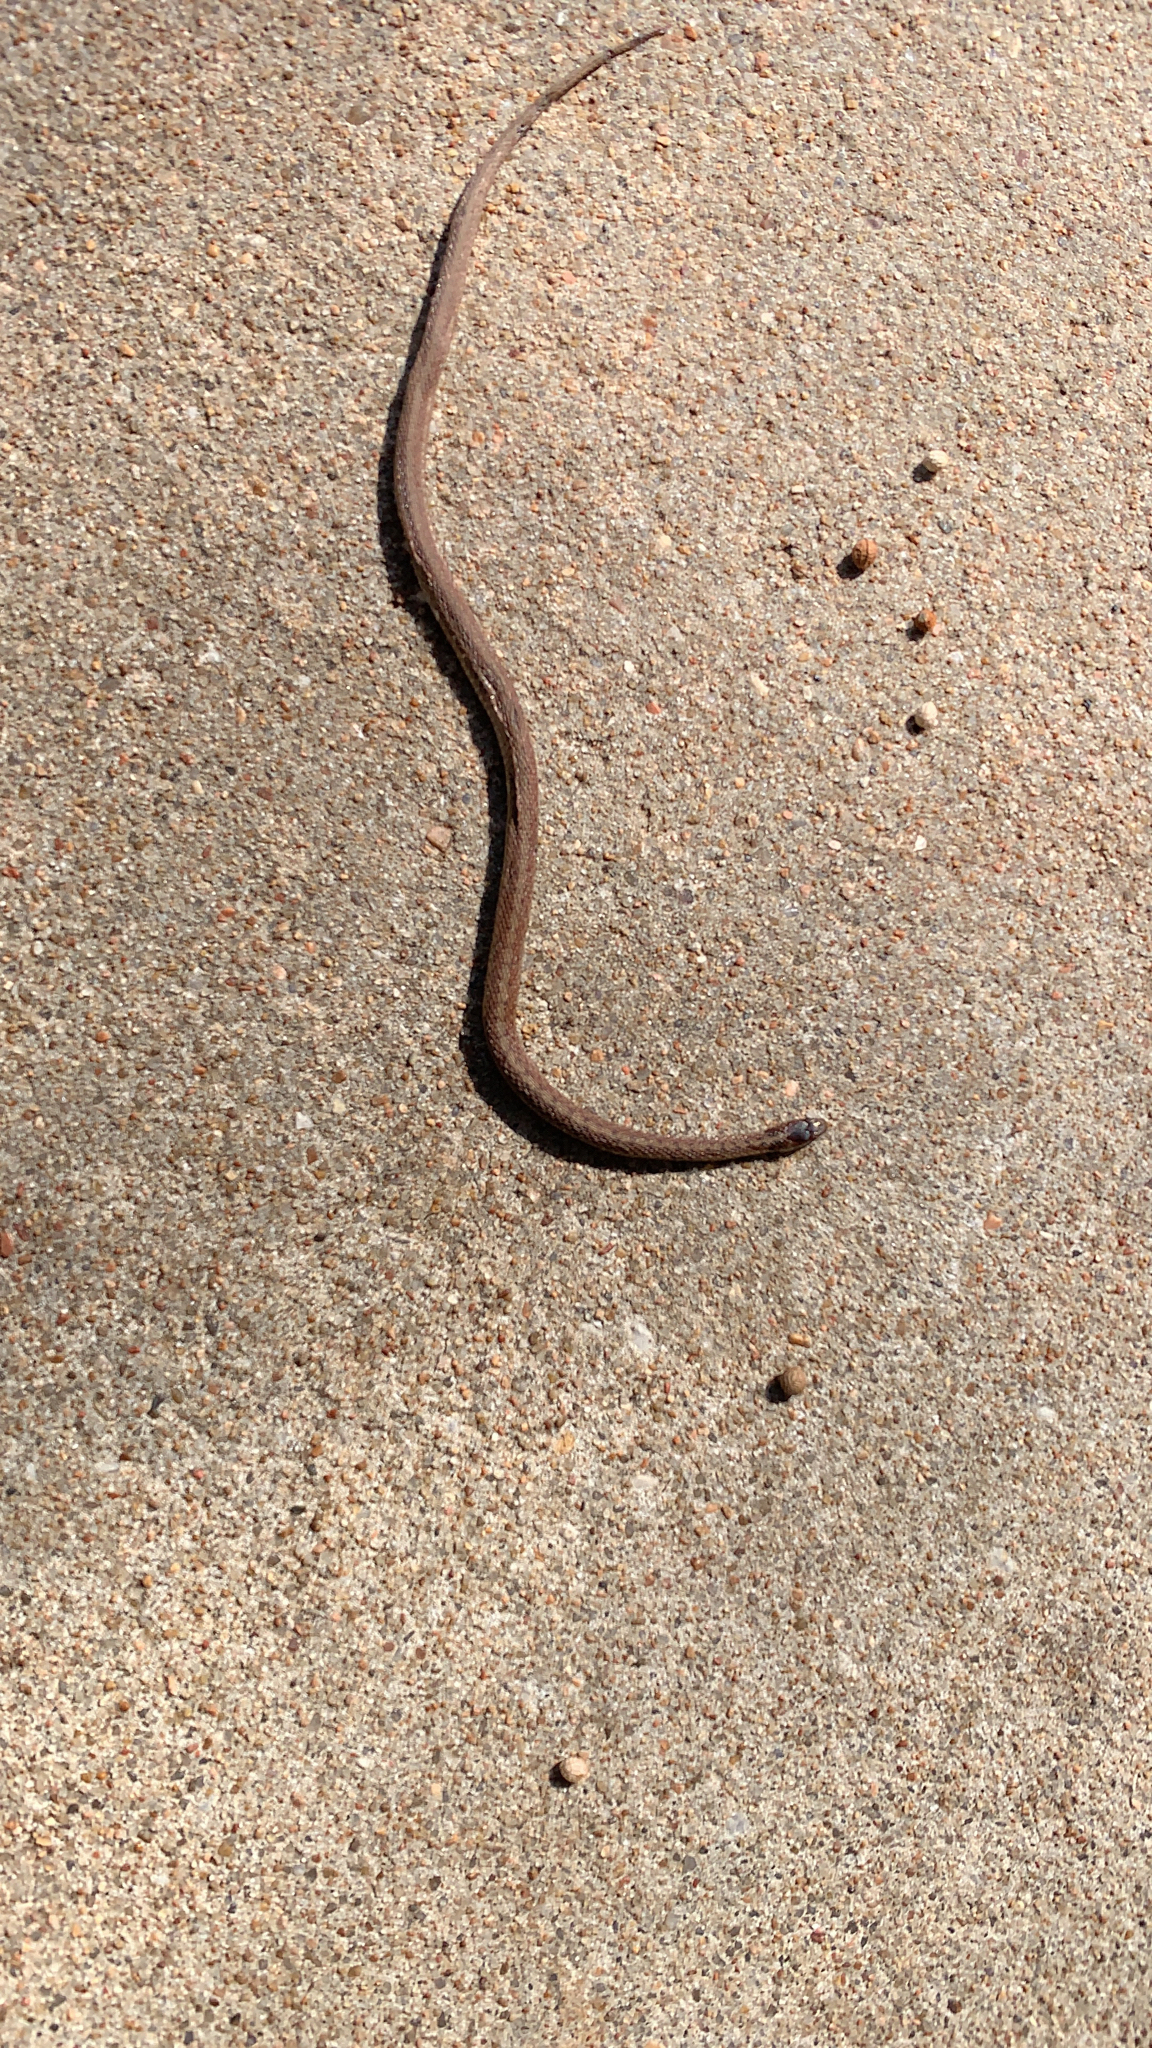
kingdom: Animalia
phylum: Chordata
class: Squamata
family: Colubridae
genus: Storeria
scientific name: Storeria dekayi
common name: (dekay’s) brown snake
